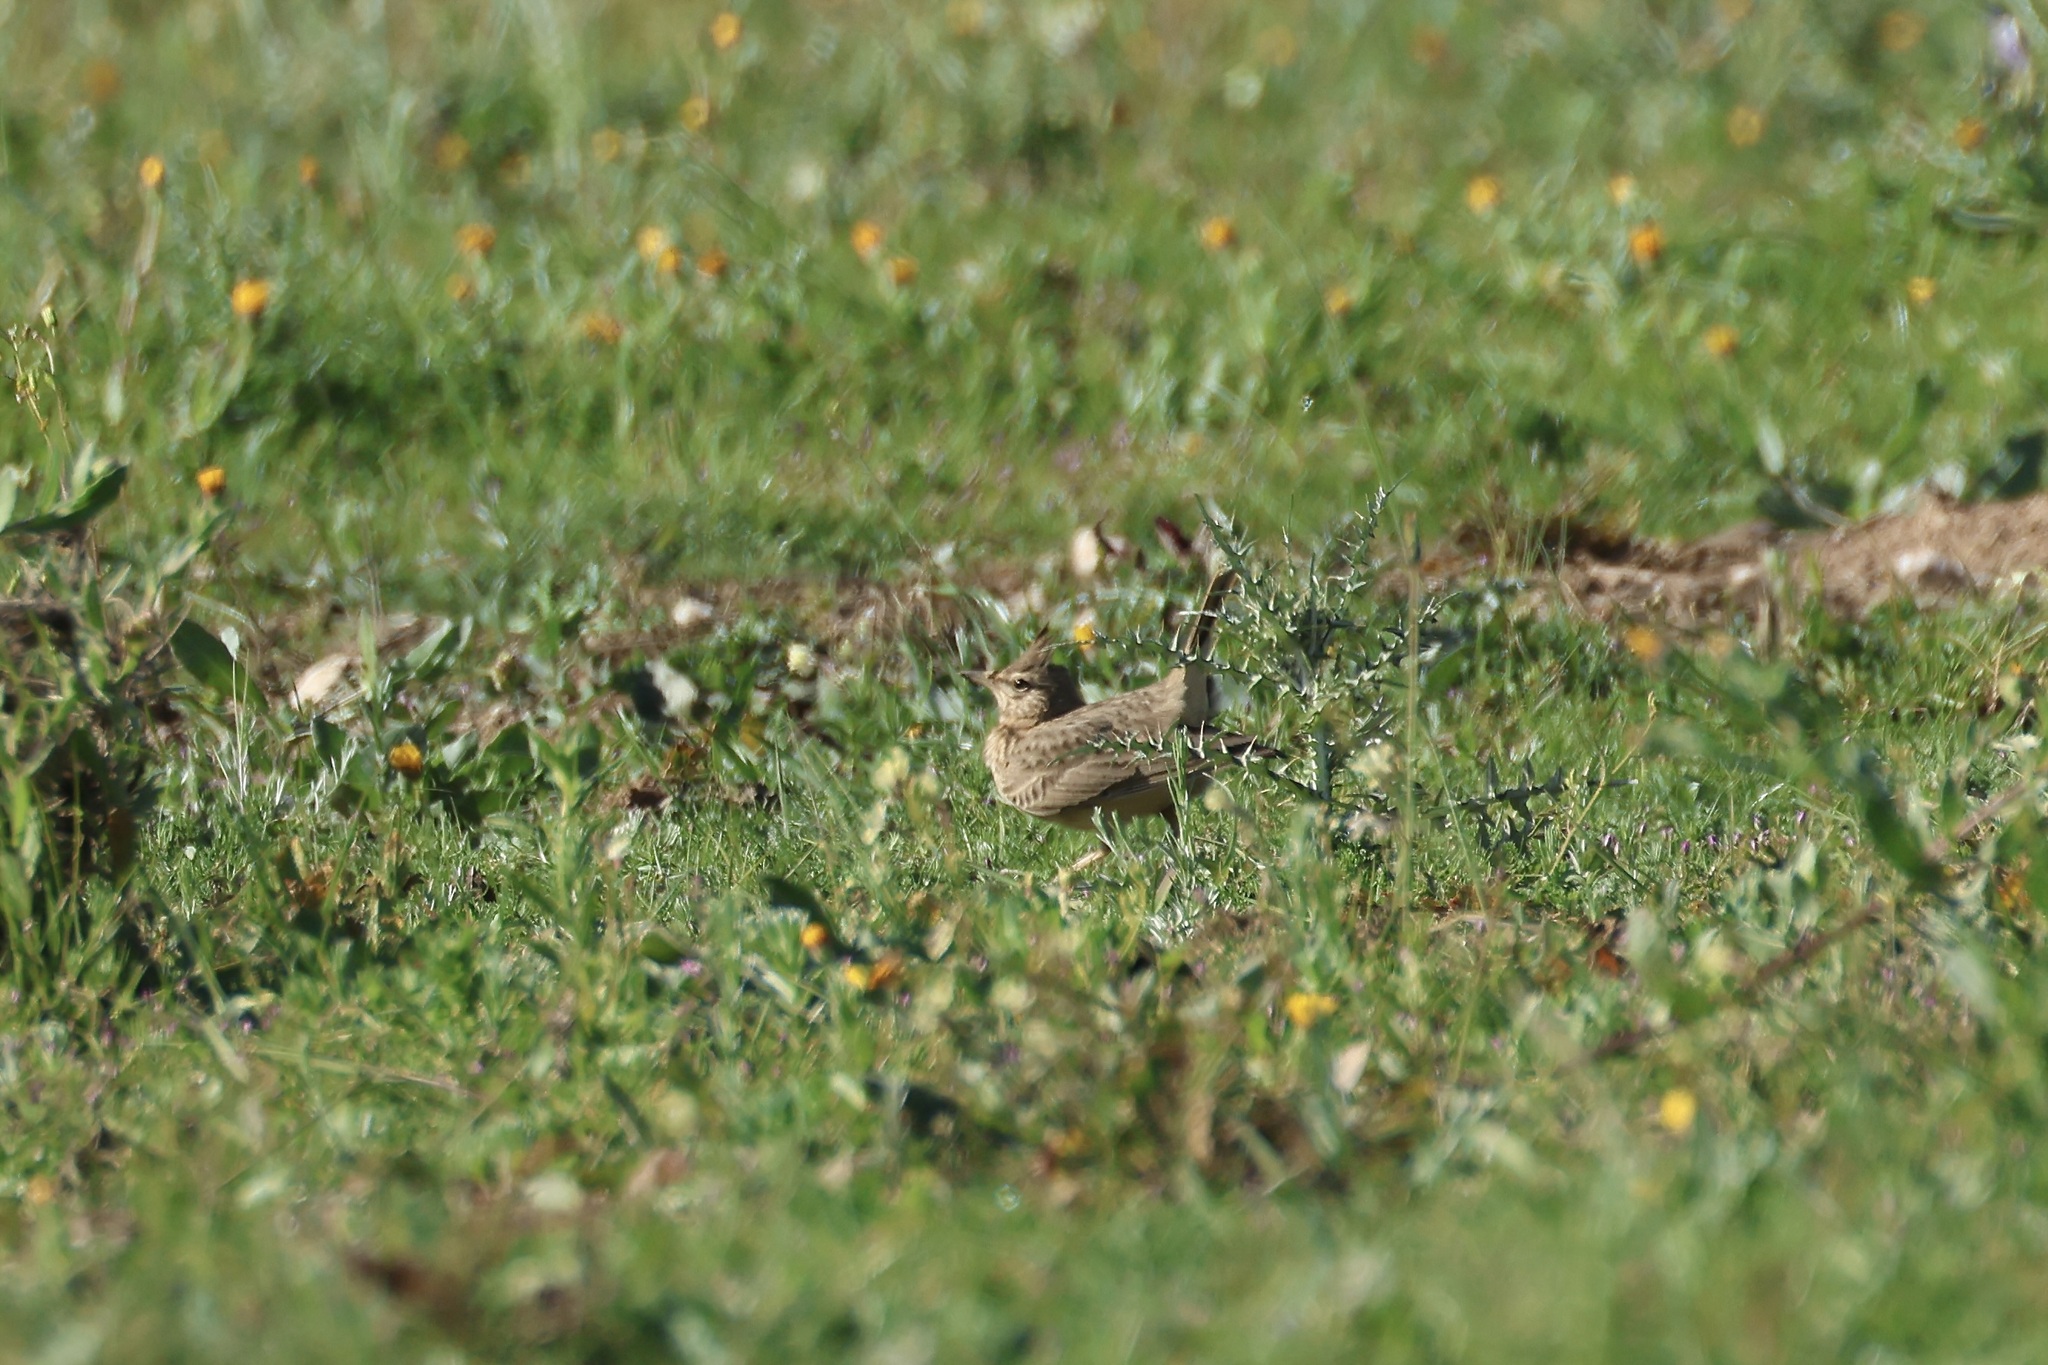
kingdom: Animalia
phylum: Chordata
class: Aves
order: Passeriformes
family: Alaudidae
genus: Galerida
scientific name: Galerida cristata
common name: Crested lark
